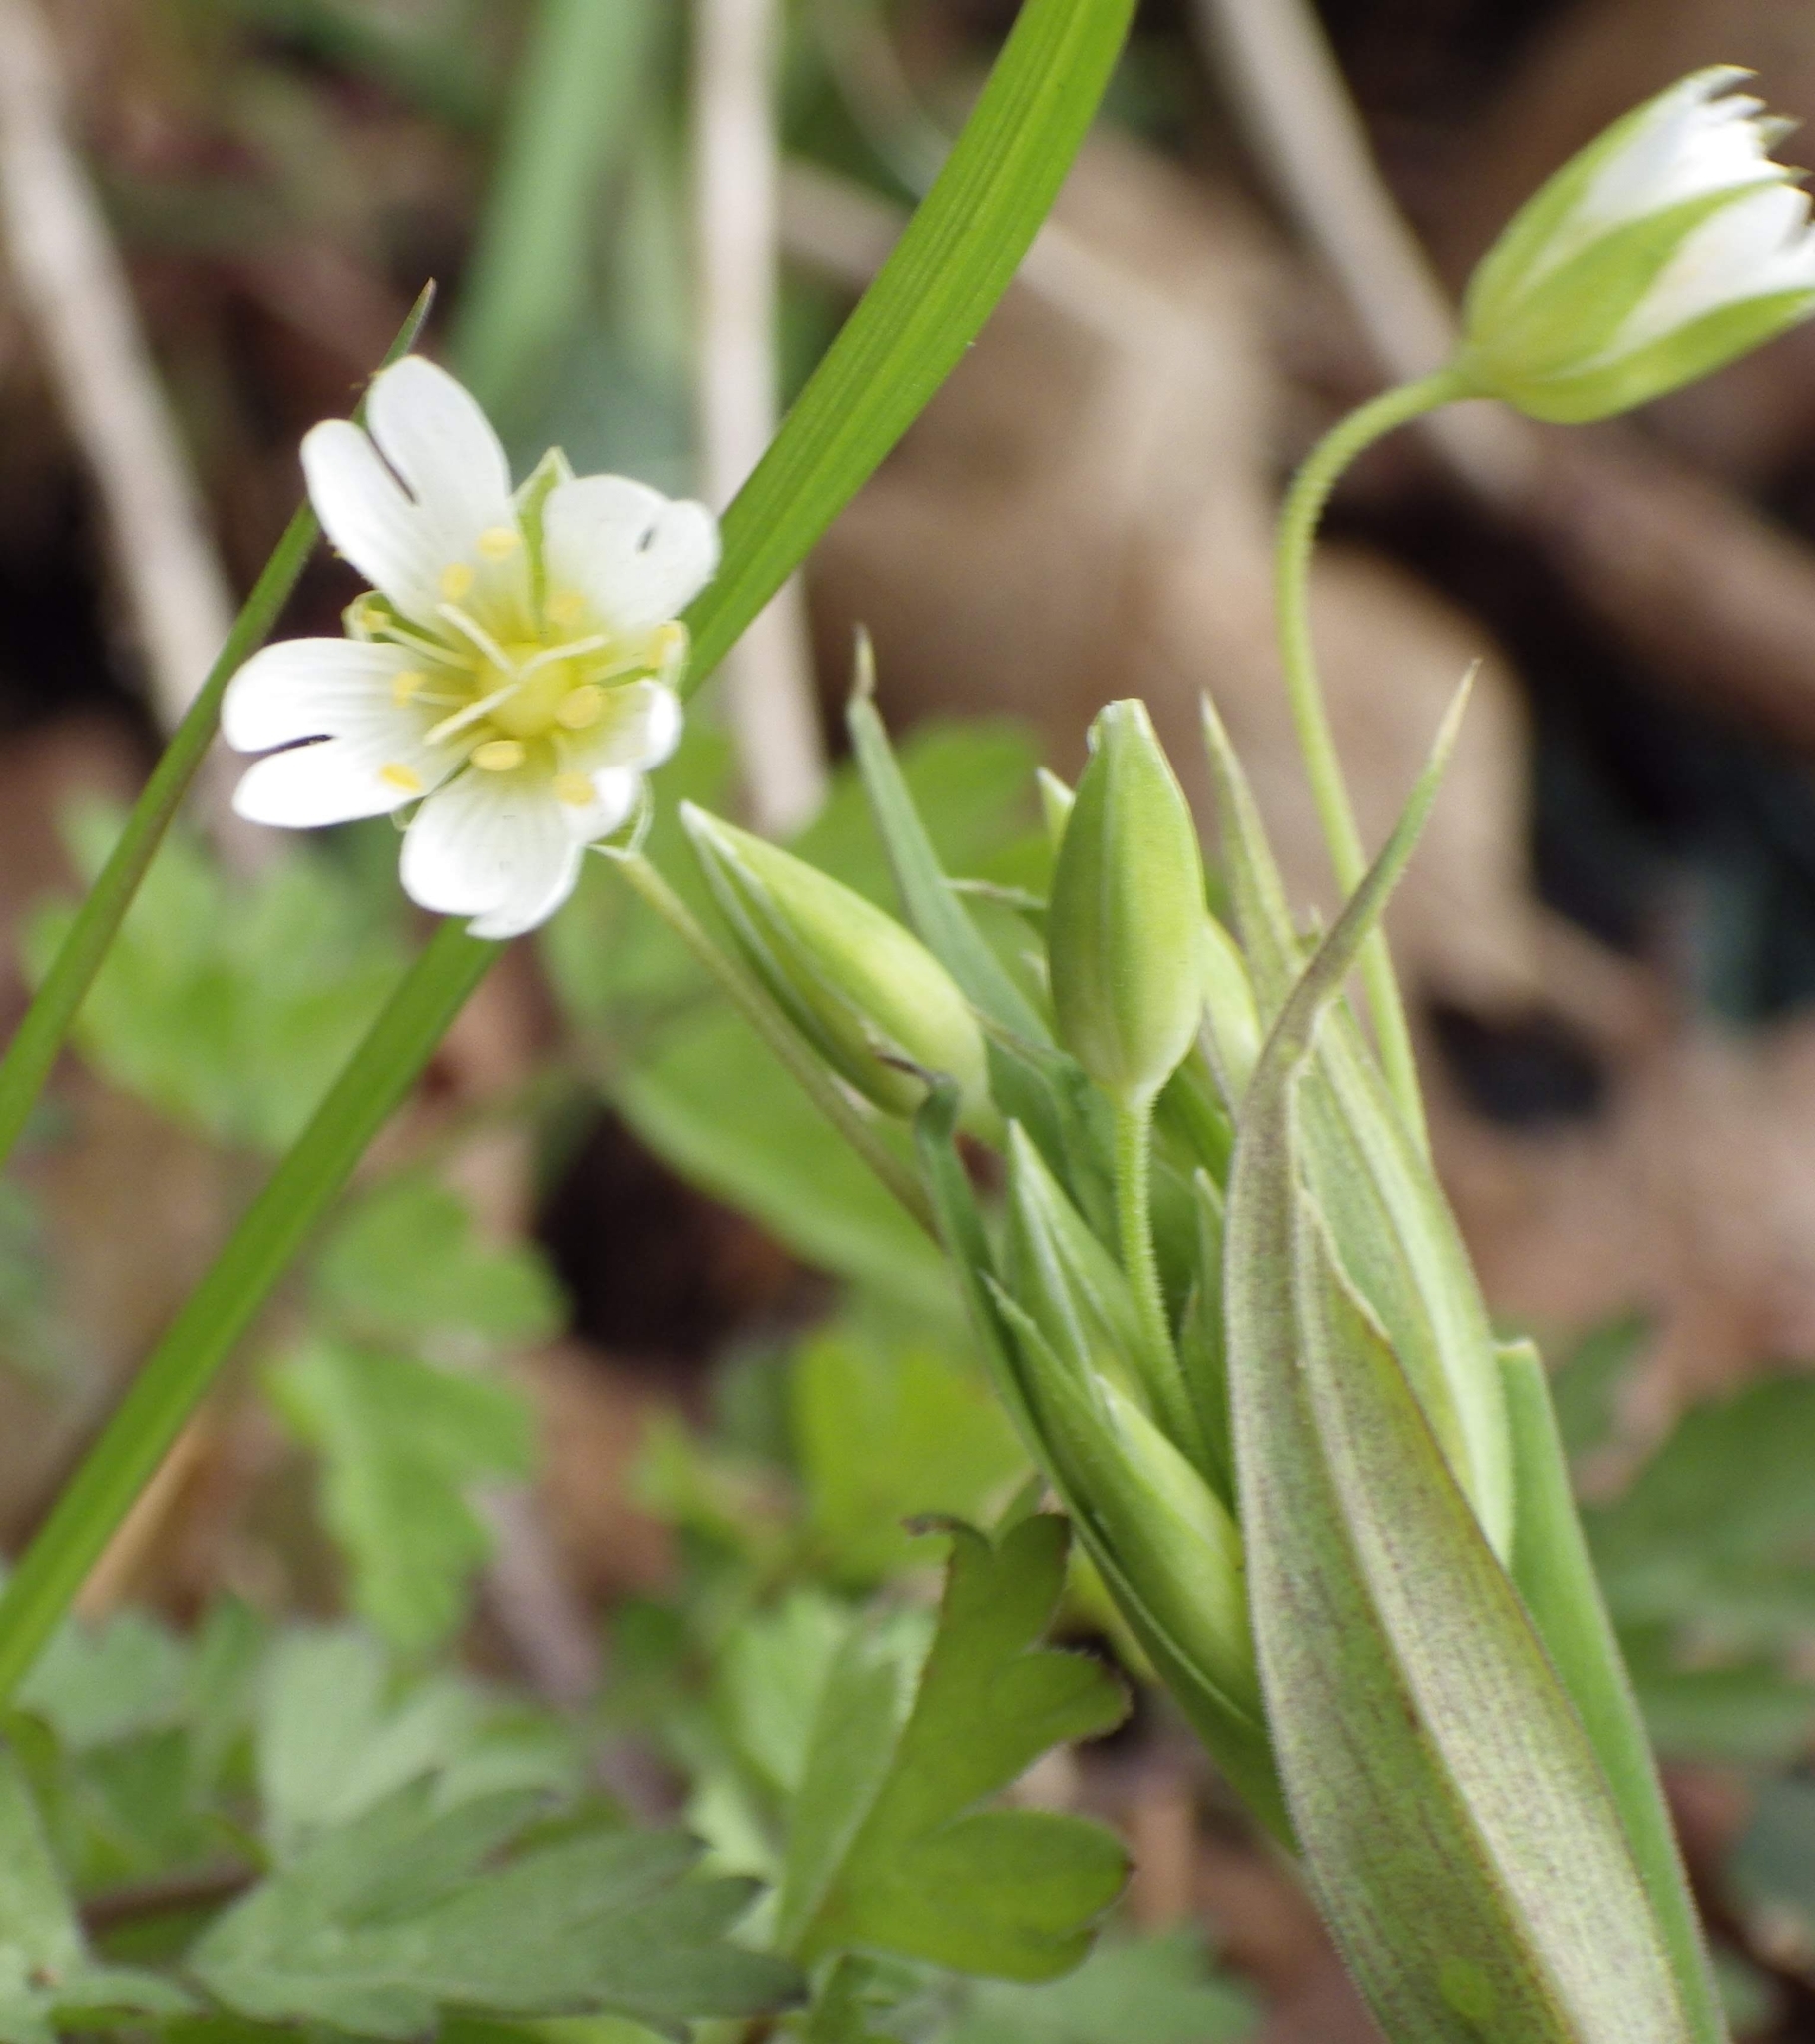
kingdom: Plantae
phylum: Tracheophyta
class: Magnoliopsida
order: Caryophyllales
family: Caryophyllaceae
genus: Rabelera
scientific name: Rabelera holostea
